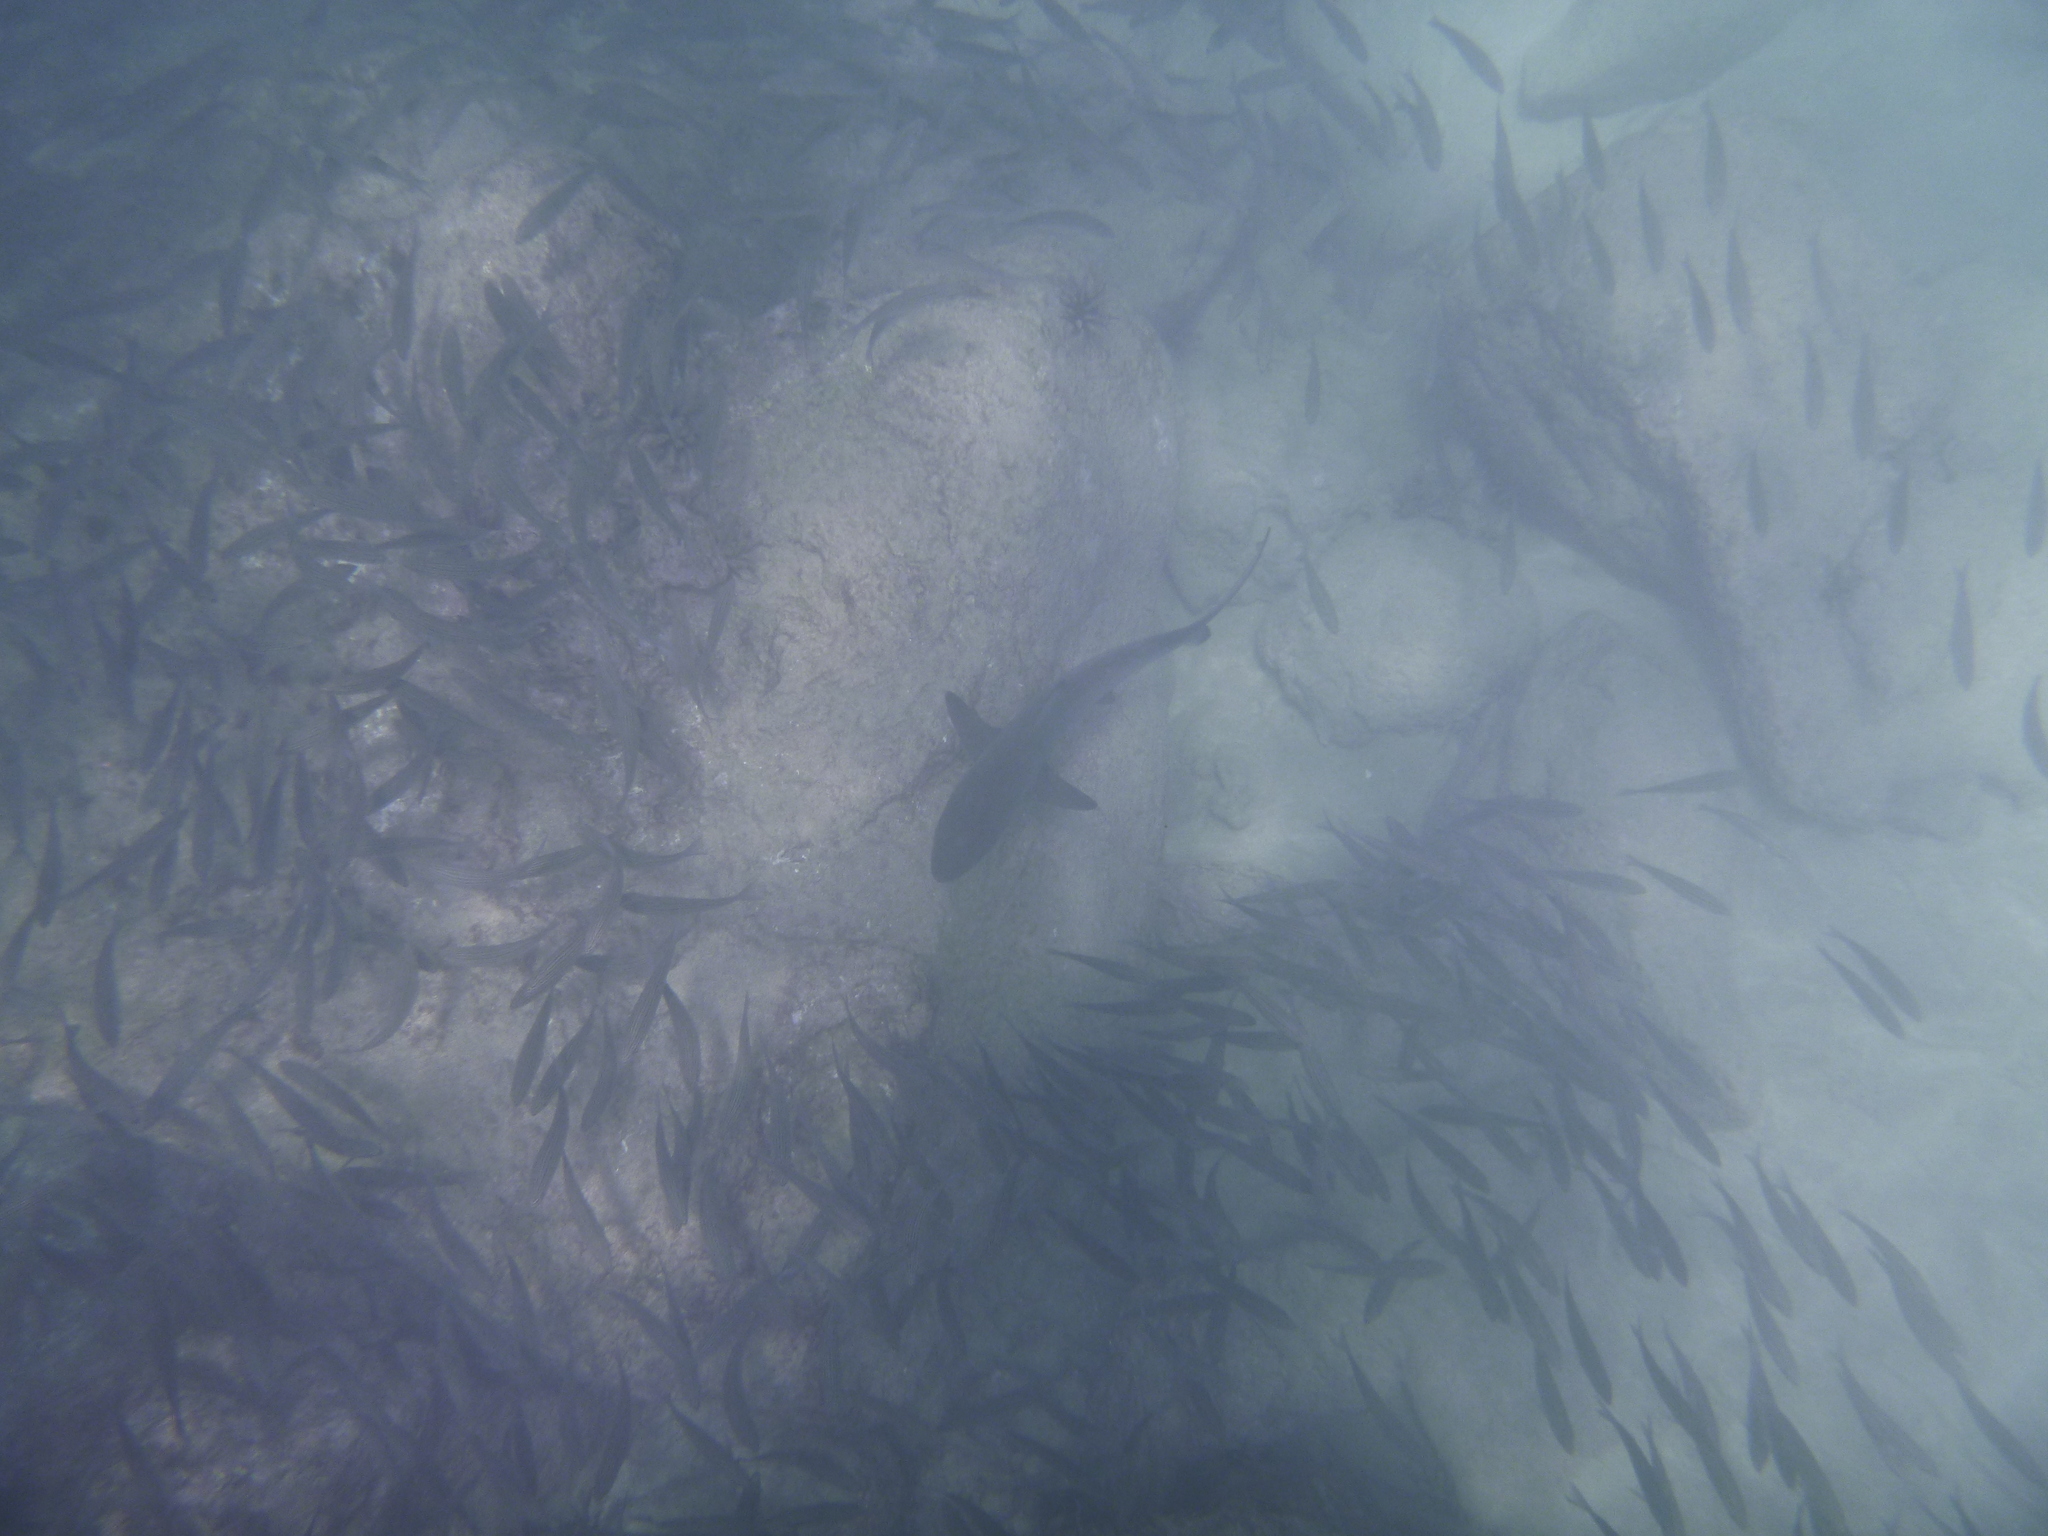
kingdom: Animalia
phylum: Chordata
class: Elasmobranchii
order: Carcharhiniformes
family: Carcharhinidae
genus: Carcharhinus
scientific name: Carcharhinus limbatus
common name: Blacktip shark
